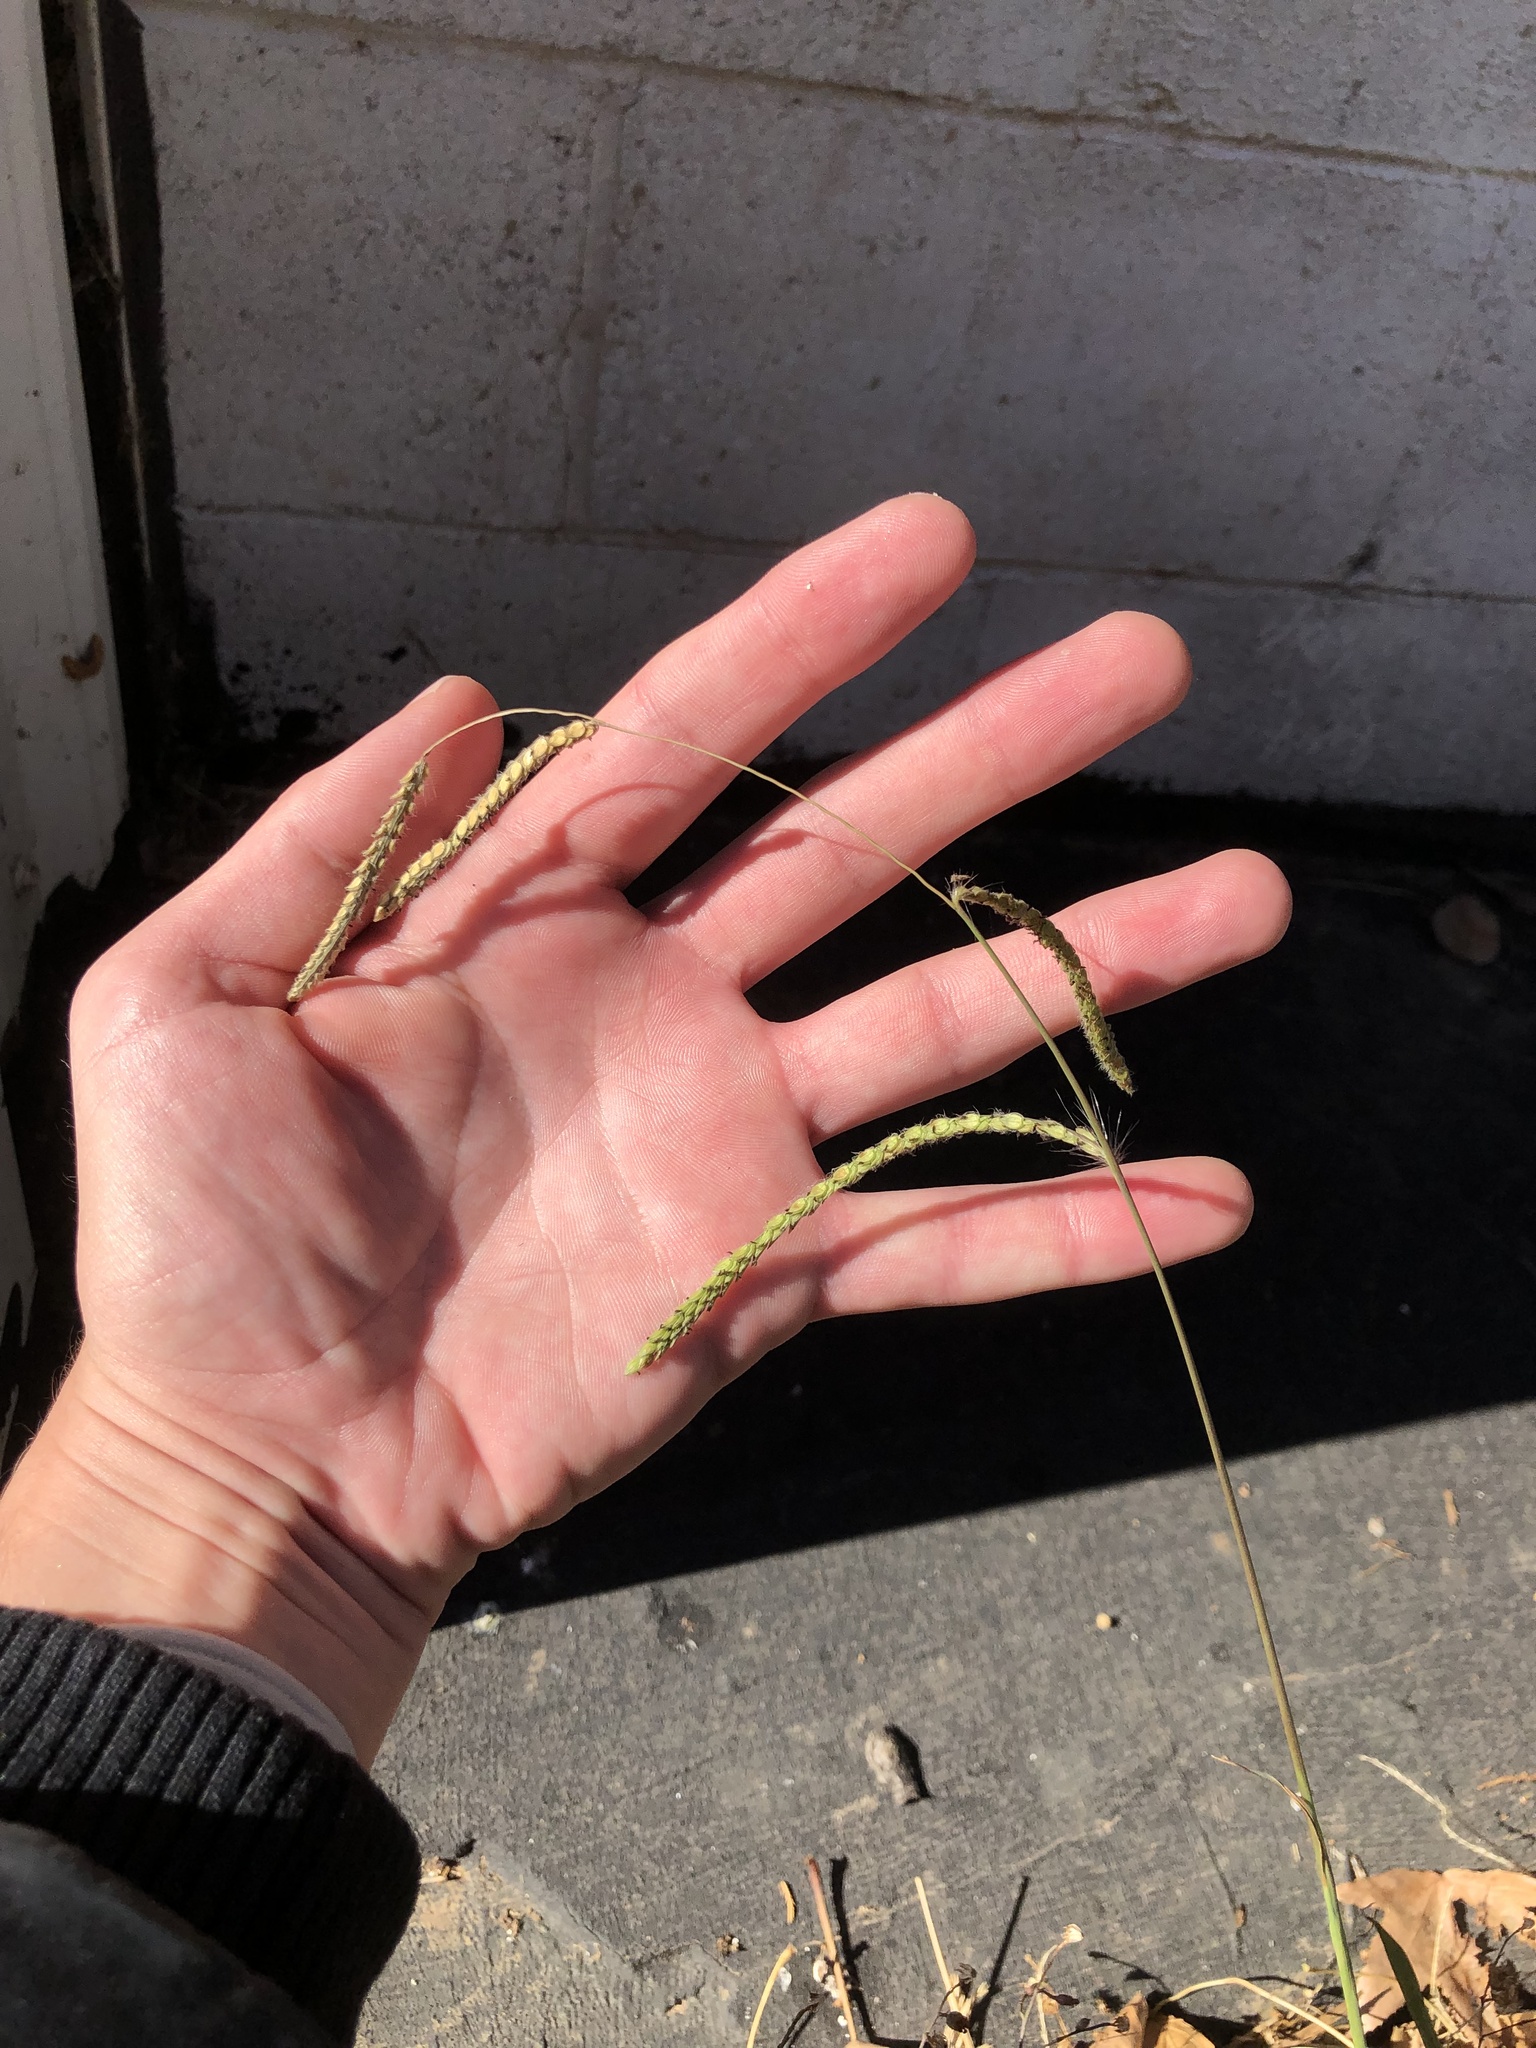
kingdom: Plantae
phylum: Tracheophyta
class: Liliopsida
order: Poales
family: Poaceae
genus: Paspalum
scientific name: Paspalum dilatatum
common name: Dallisgrass
